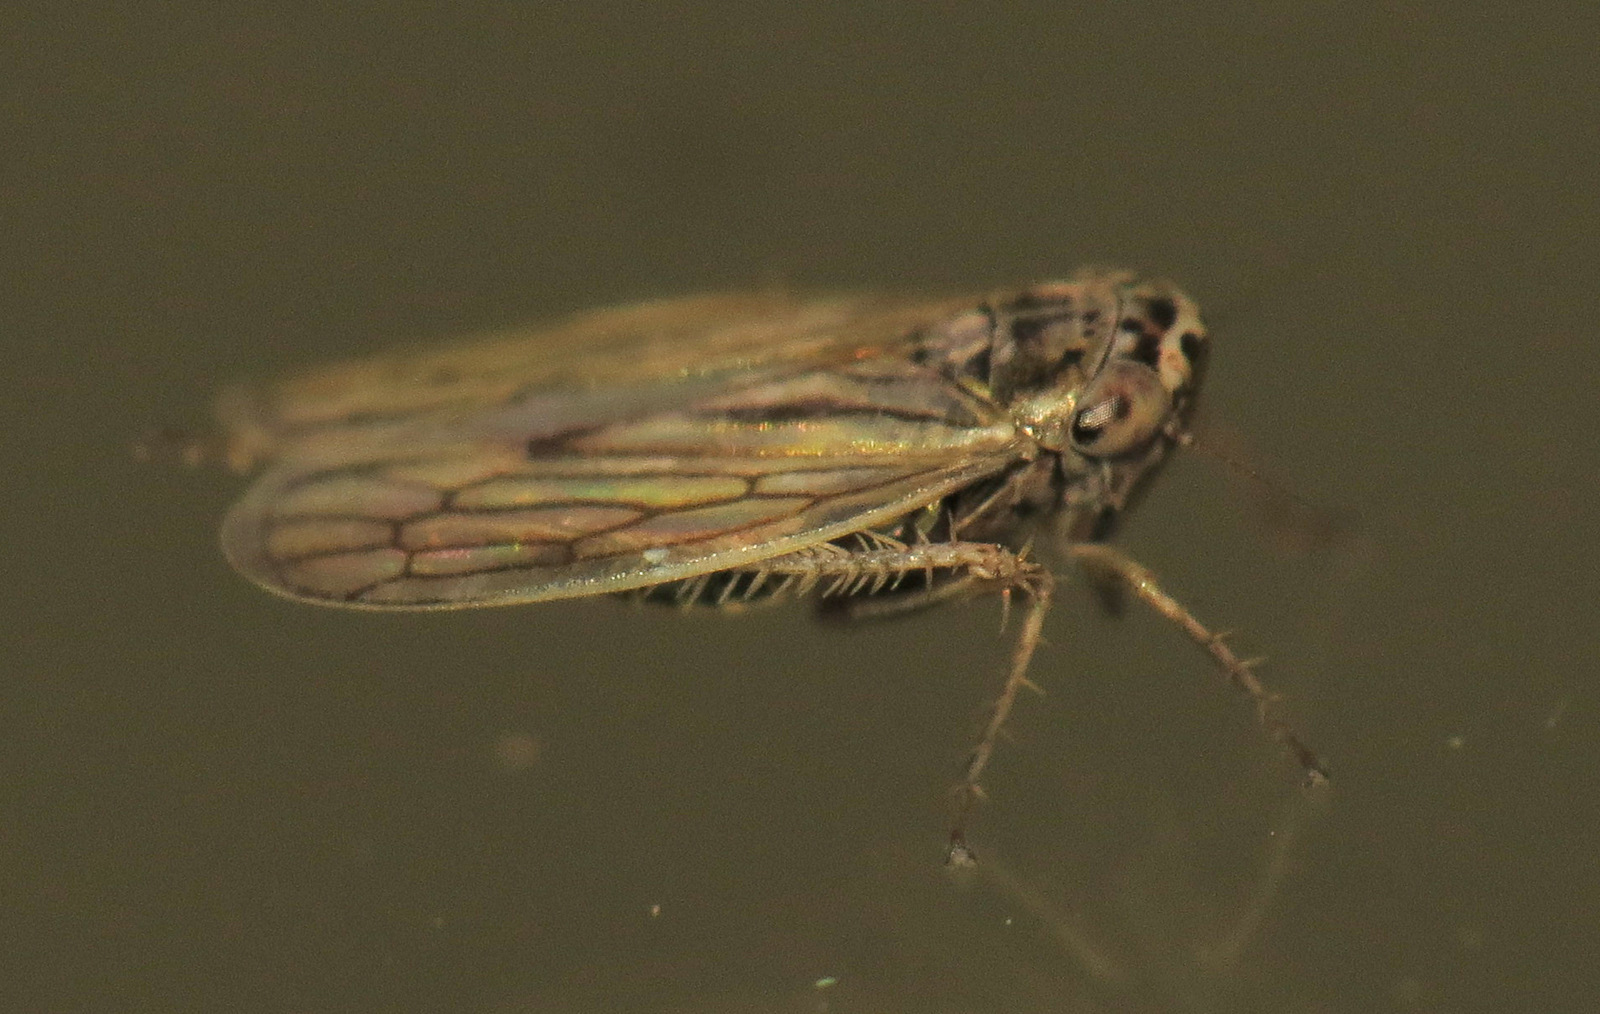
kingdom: Animalia
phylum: Arthropoda
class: Insecta
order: Hemiptera
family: Cicadellidae
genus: Exitianus
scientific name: Exitianus exitiosus
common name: Gray lawn leafhopper
